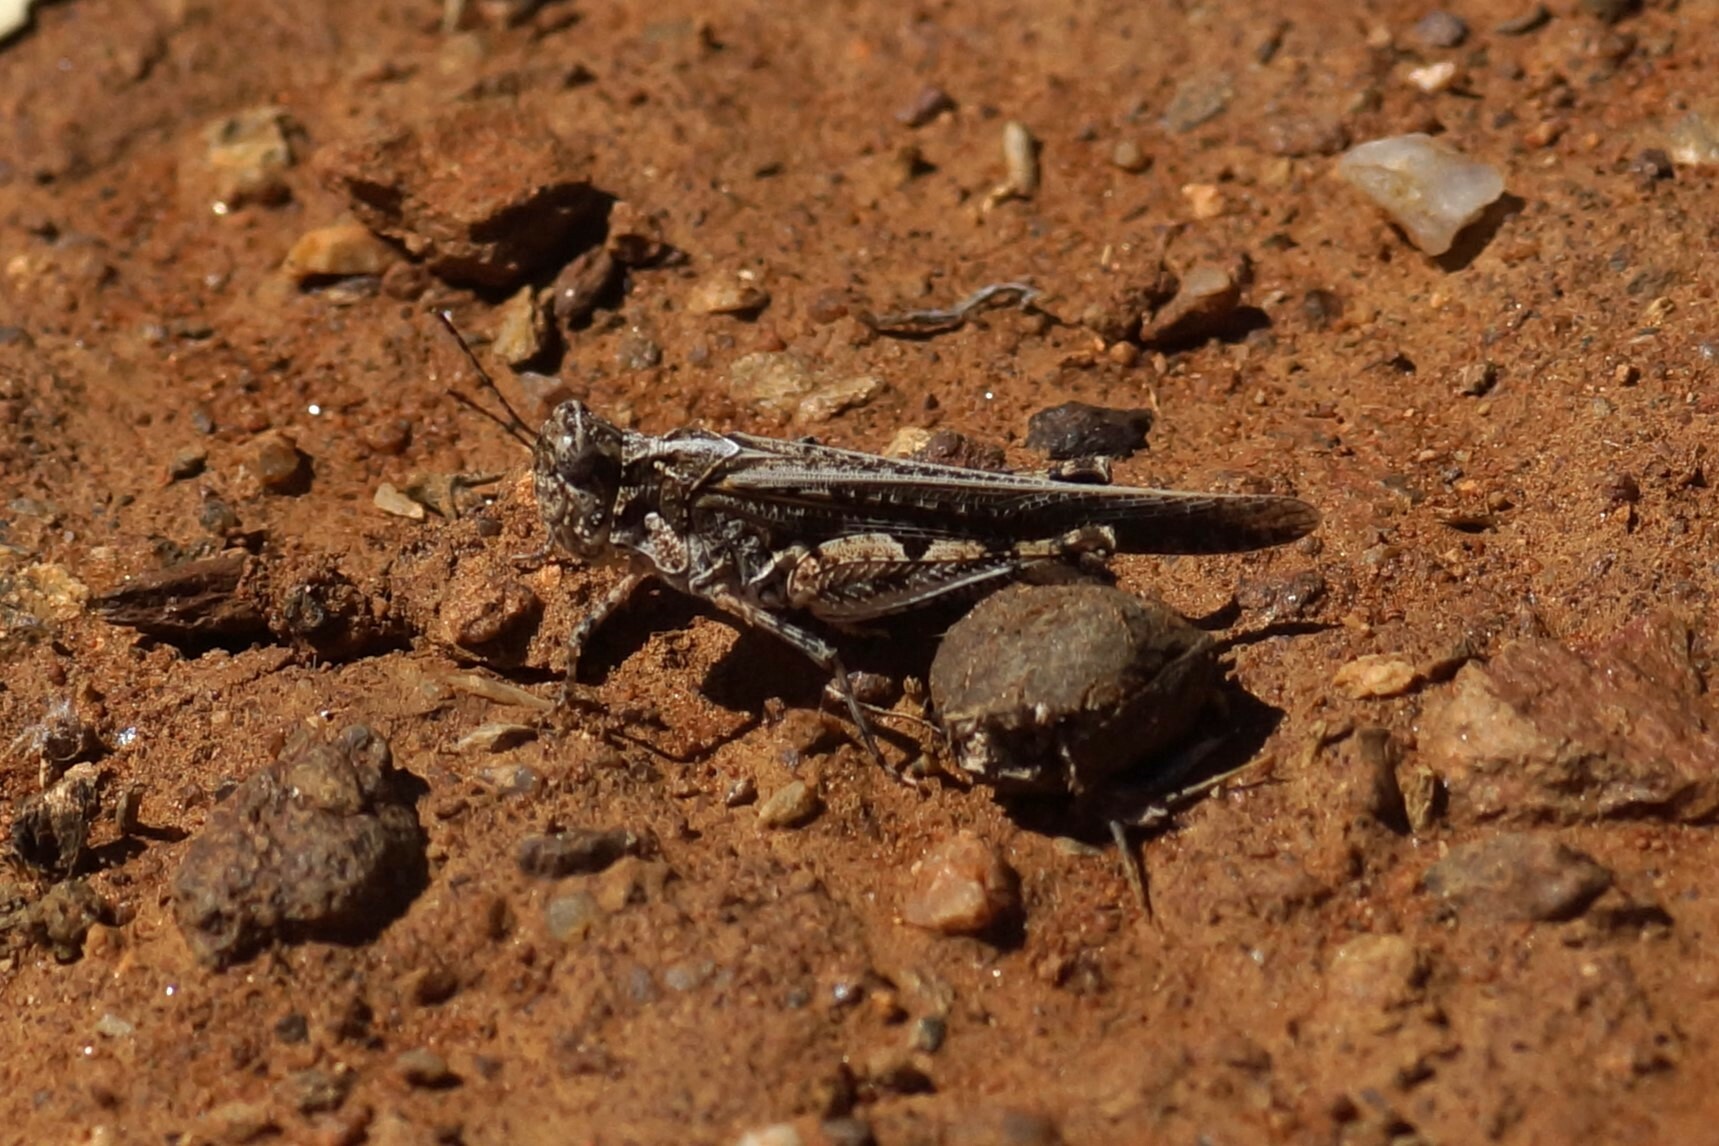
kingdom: Animalia
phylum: Arthropoda
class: Insecta
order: Orthoptera
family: Acrididae
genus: Pycnostictus
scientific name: Pycnostictus seriatus
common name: Common bandwing
